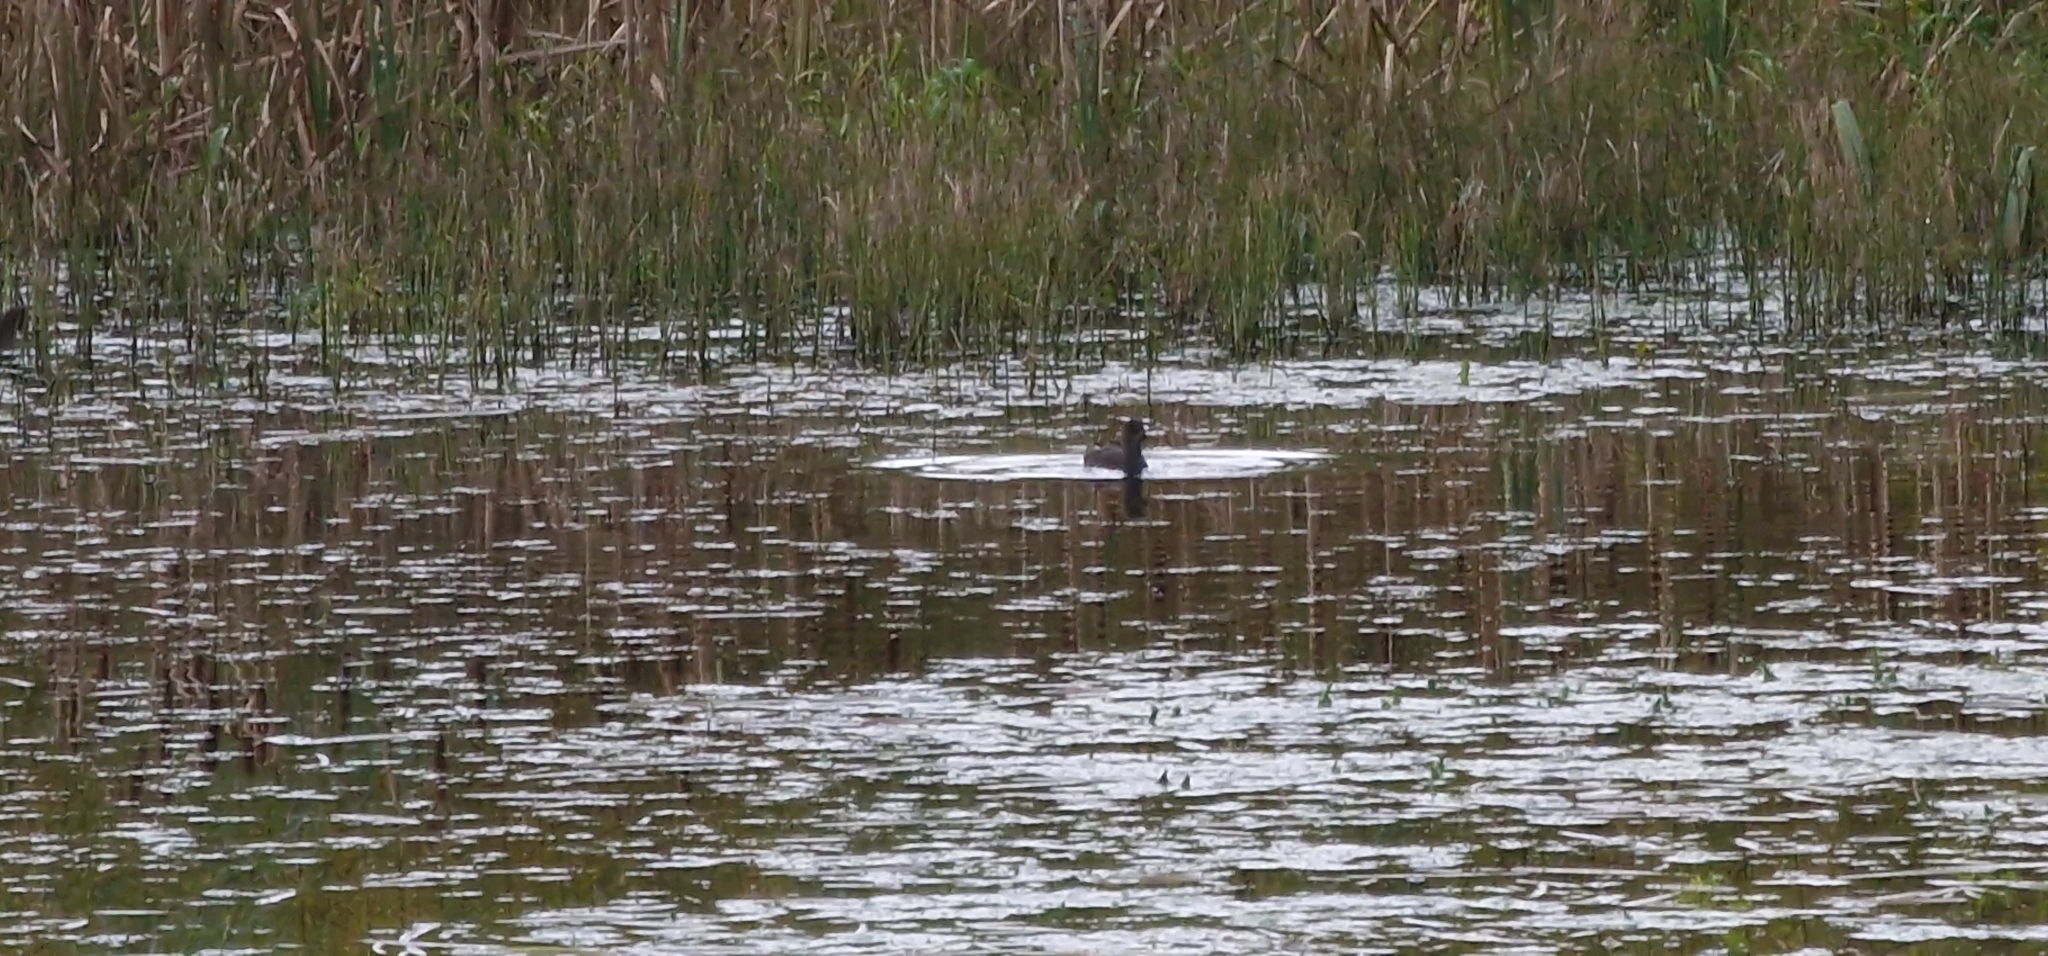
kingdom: Animalia
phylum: Chordata
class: Aves
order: Gruiformes
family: Rallidae
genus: Fulica
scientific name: Fulica atra
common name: Eurasian coot
